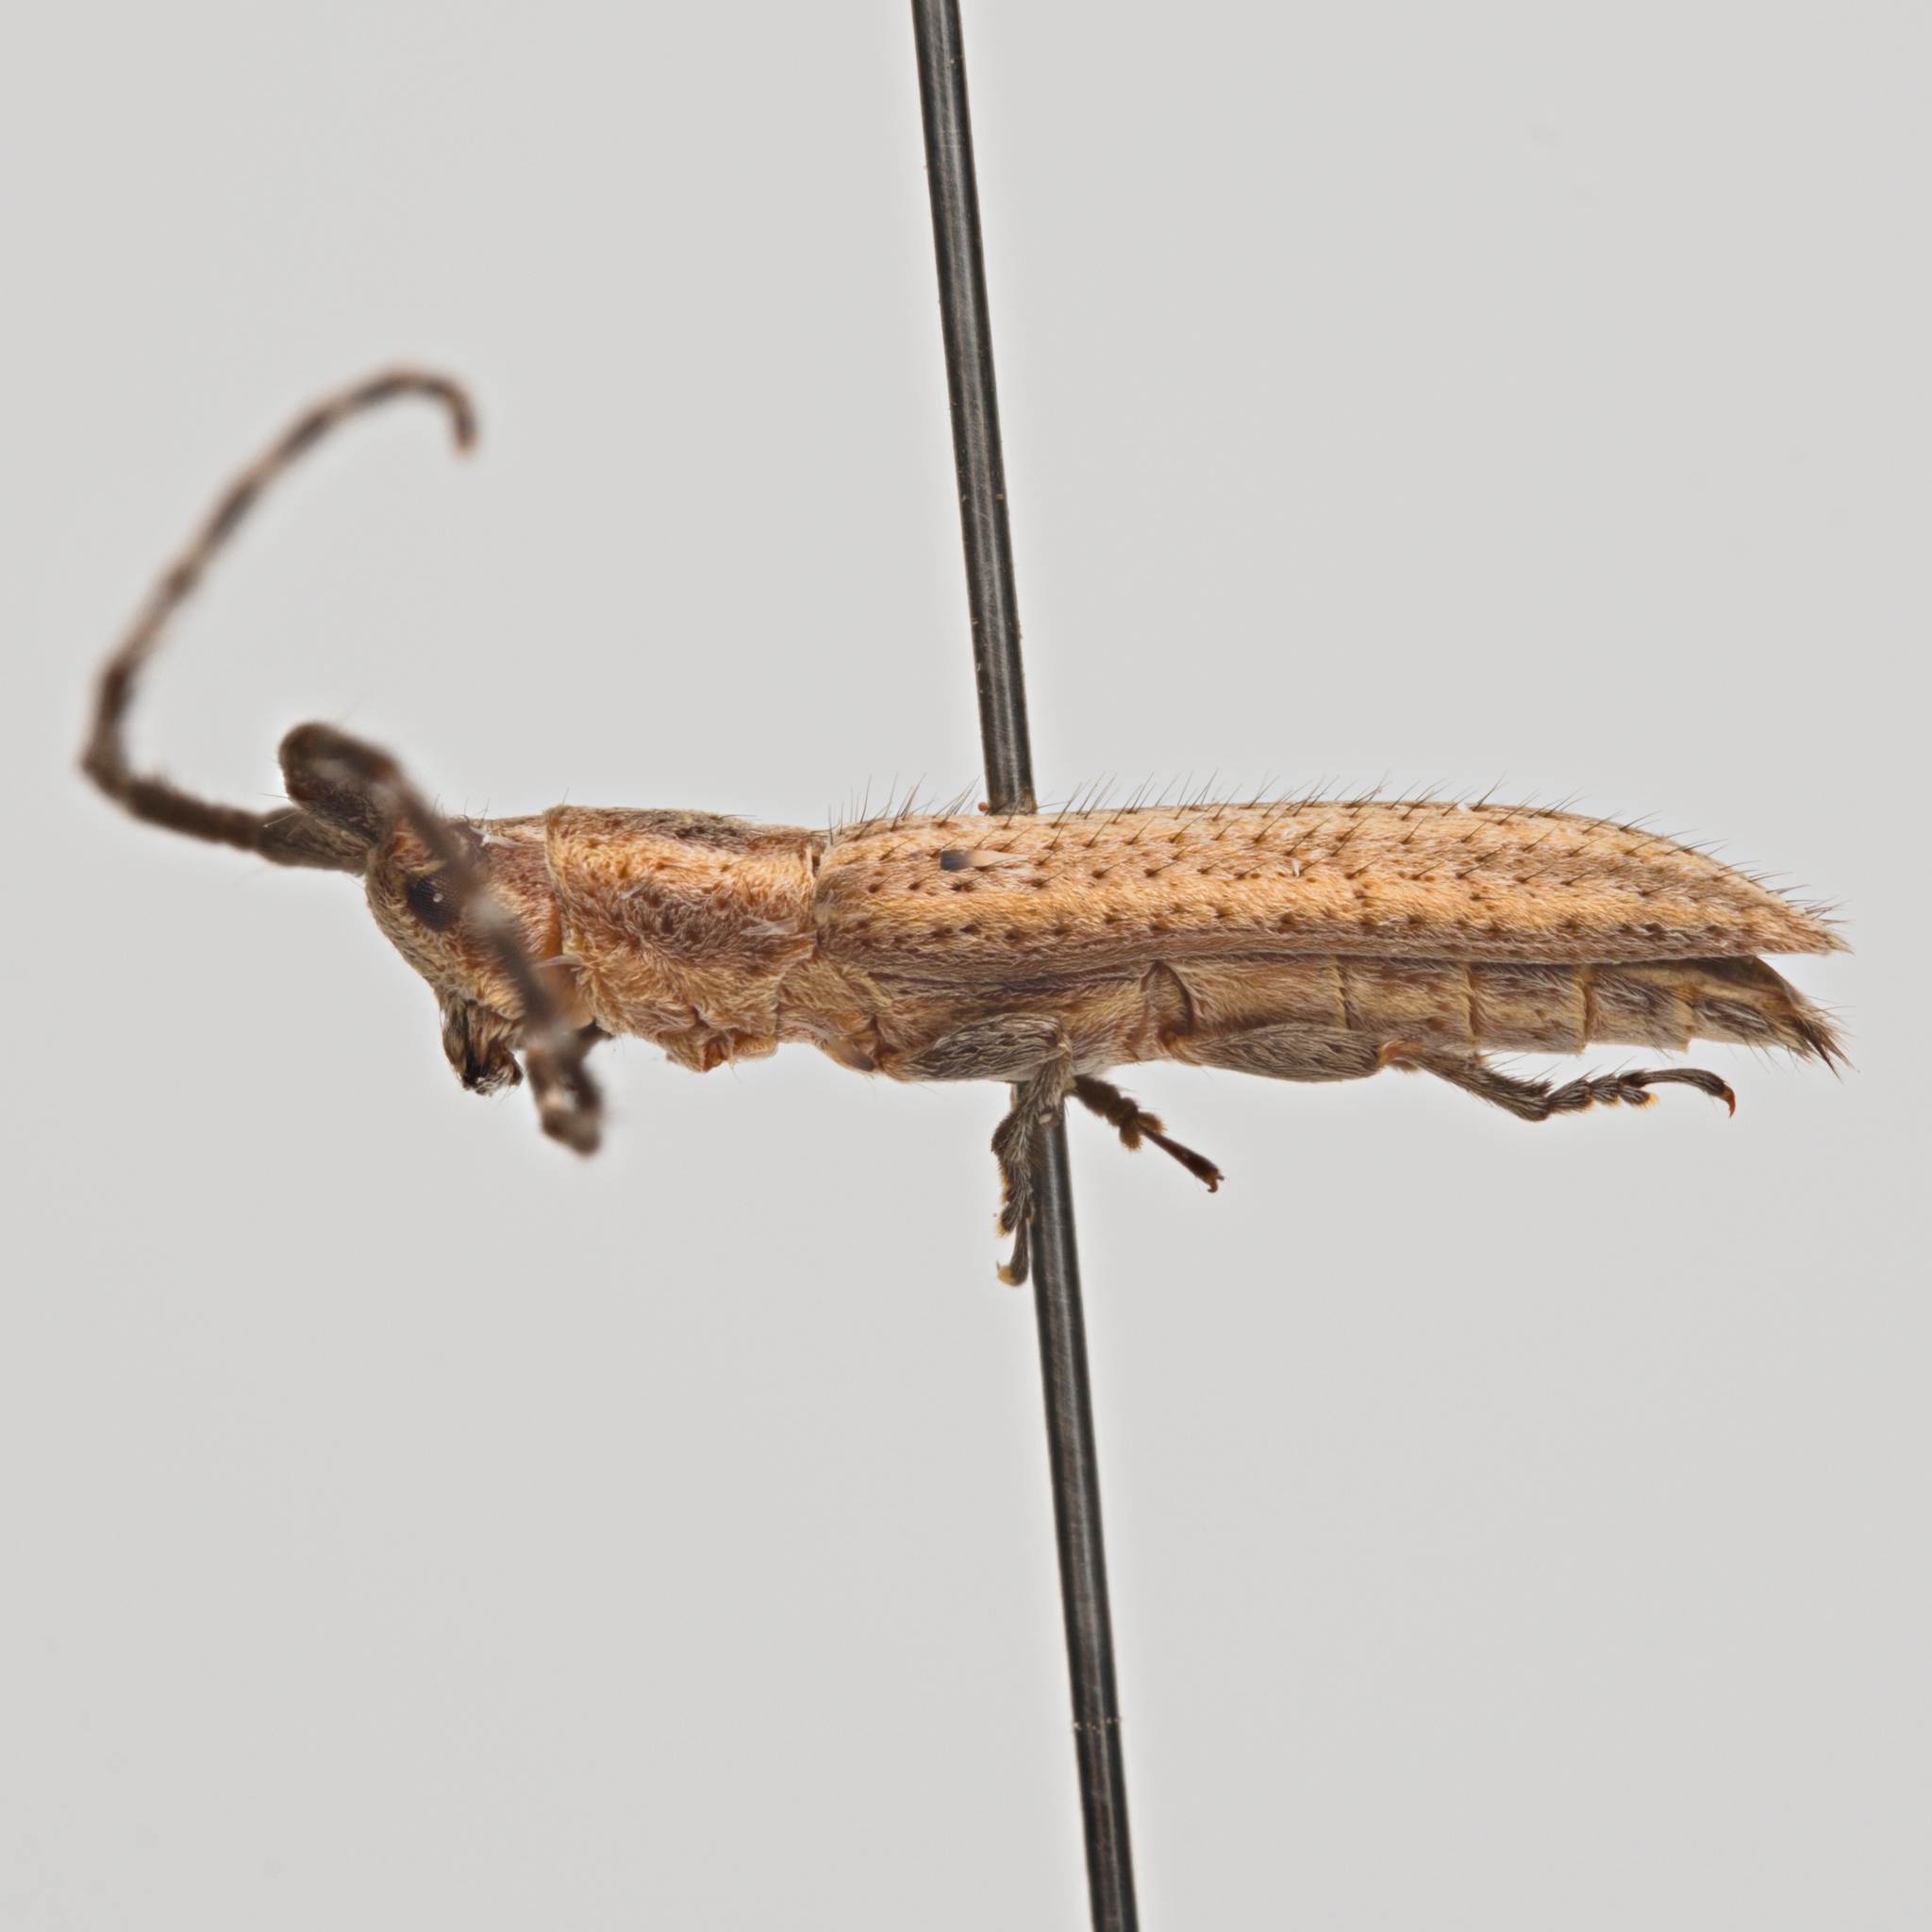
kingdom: Animalia
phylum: Arthropoda
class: Insecta
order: Coleoptera
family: Cerambycidae
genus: Dorcasta
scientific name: Dorcasta cinerea
